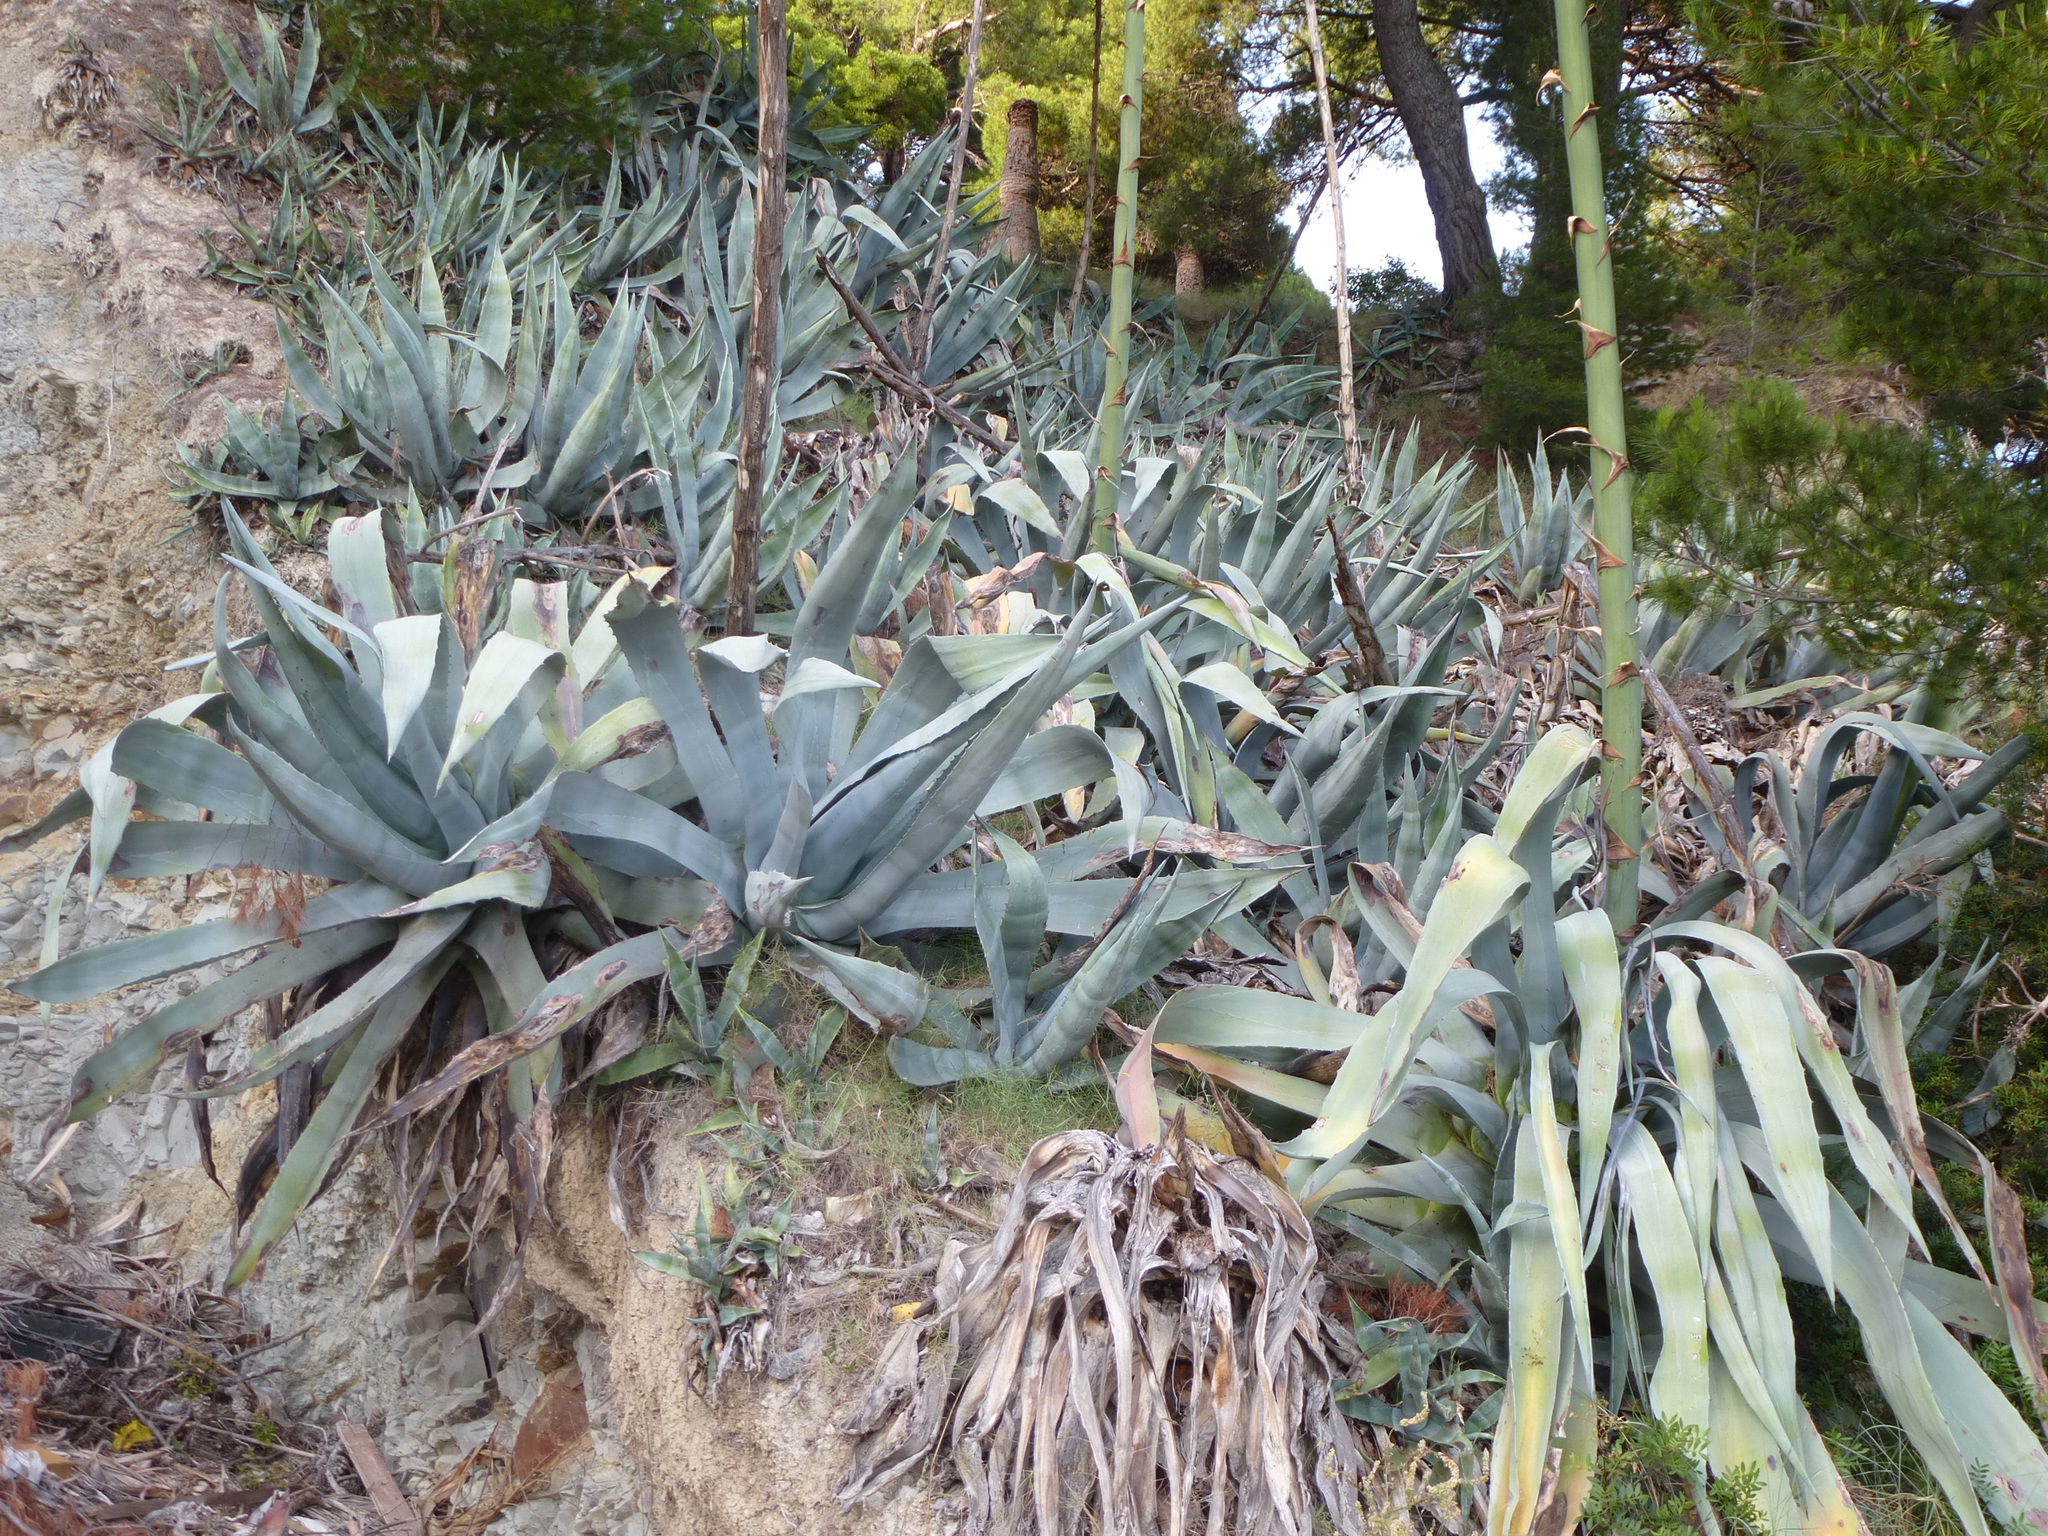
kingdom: Plantae
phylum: Tracheophyta
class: Liliopsida
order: Asparagales
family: Asparagaceae
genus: Agave
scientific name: Agave americana
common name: Centuryplant
